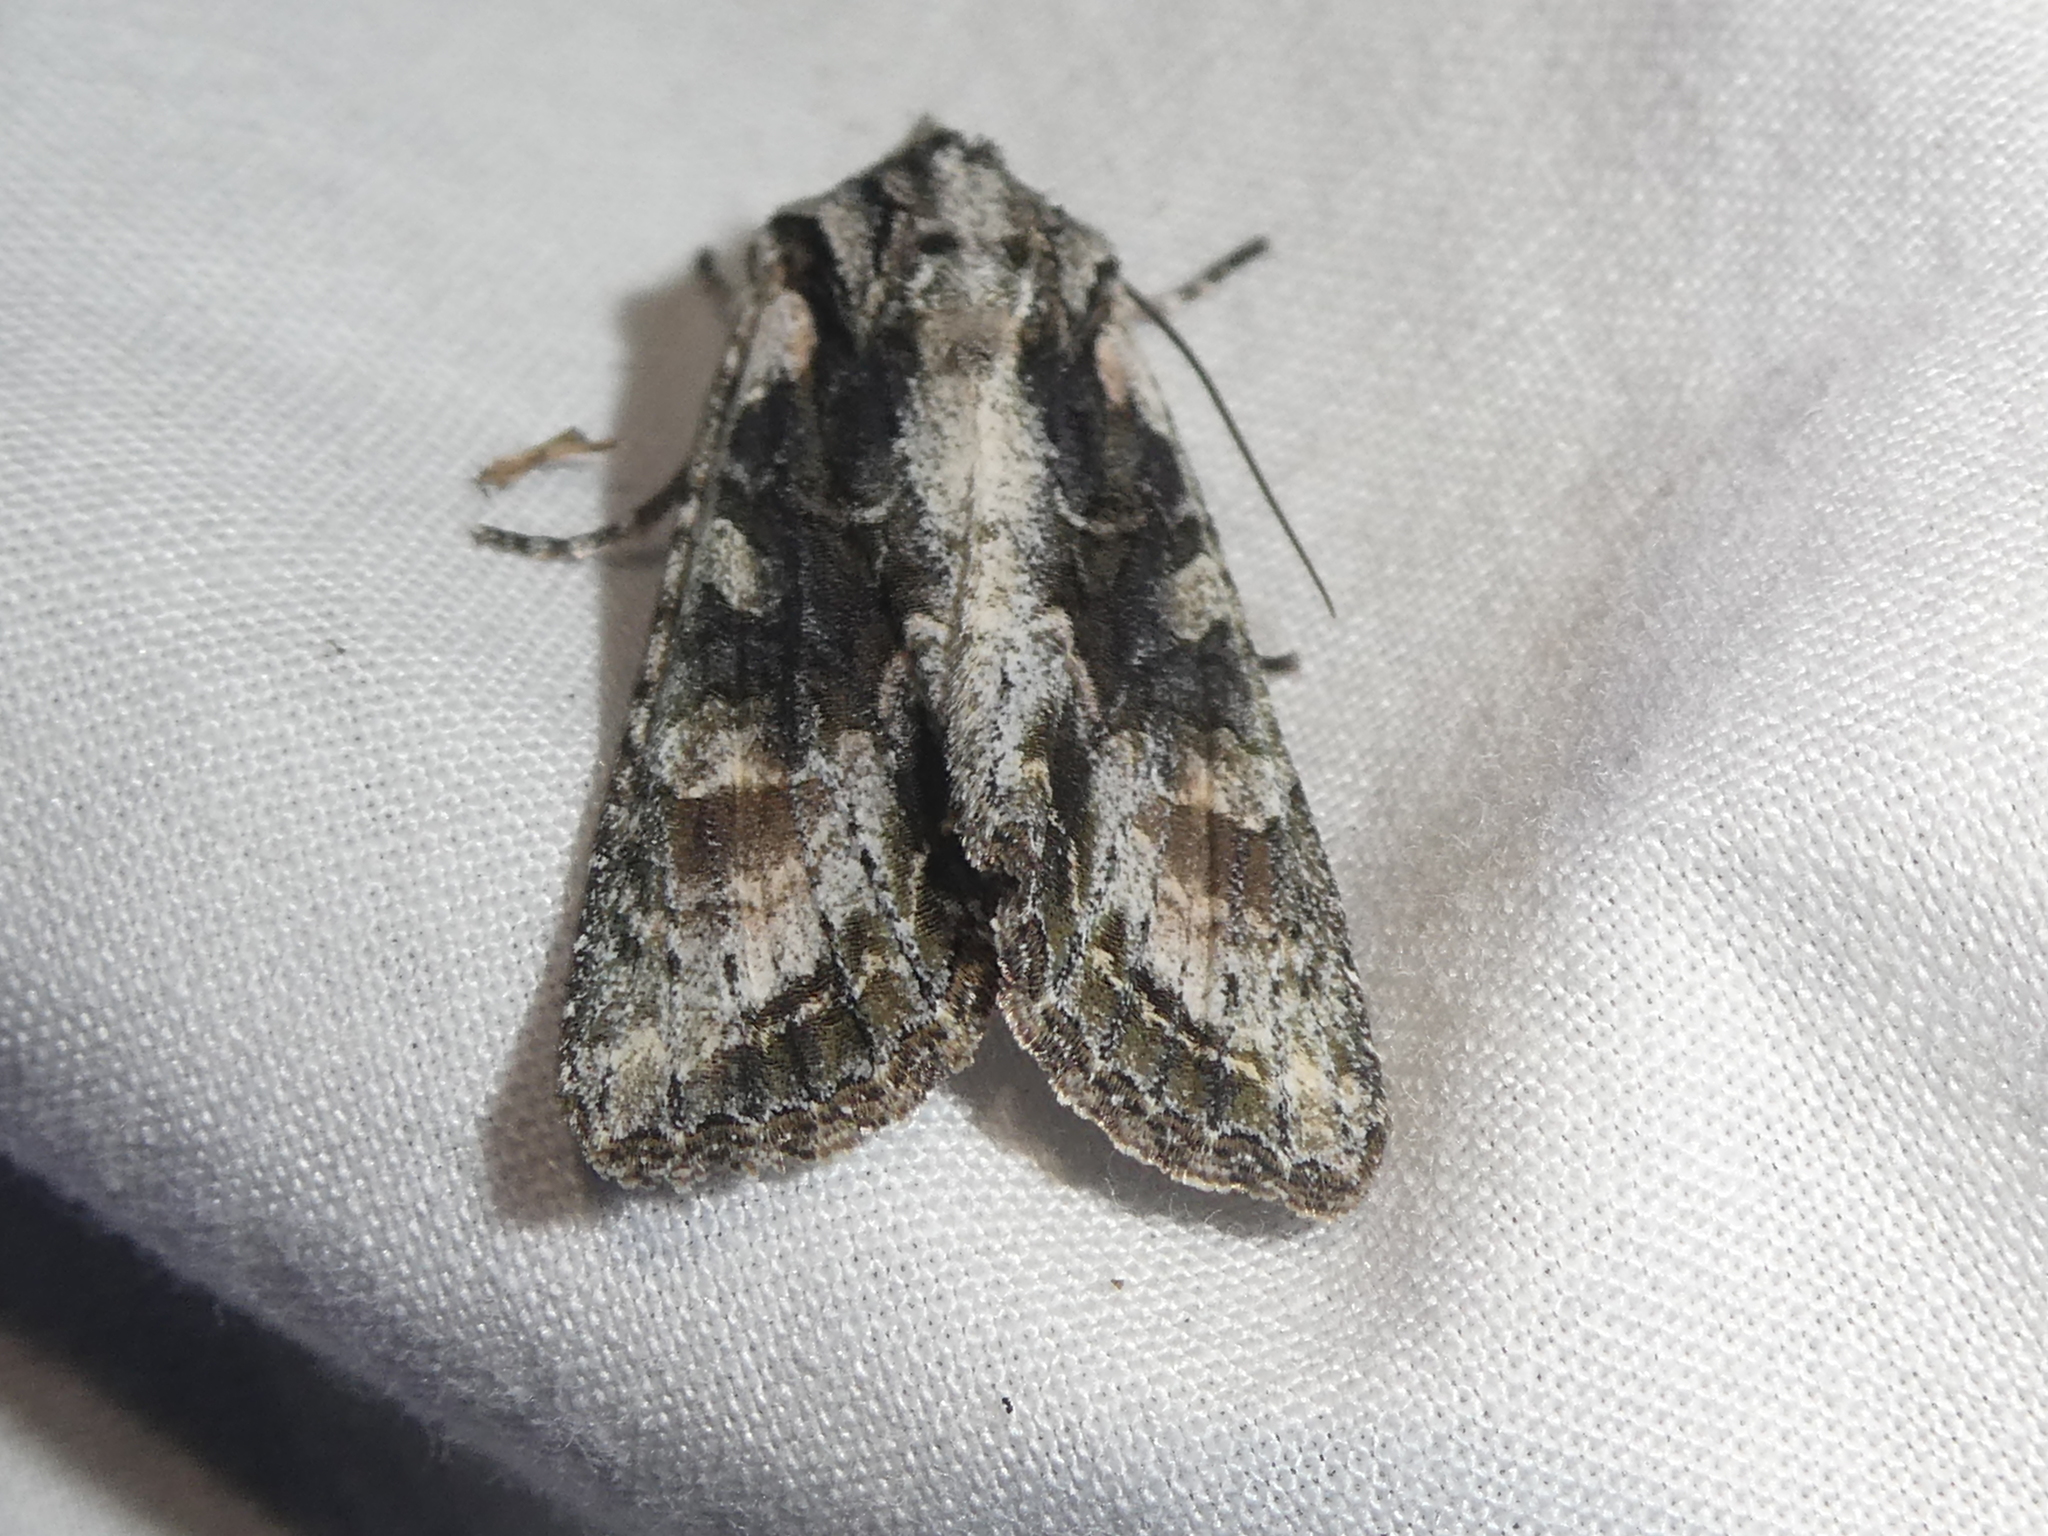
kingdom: Animalia
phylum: Arthropoda
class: Insecta
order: Lepidoptera
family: Noctuidae
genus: Ichneutica
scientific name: Ichneutica mutans
